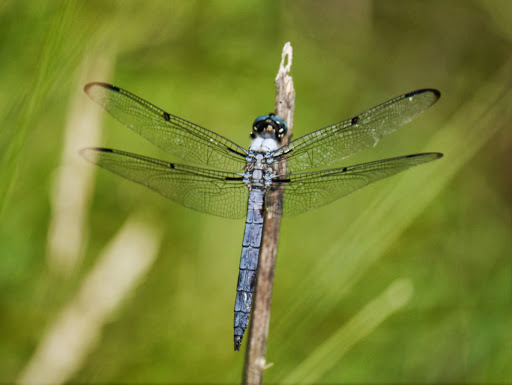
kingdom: Animalia
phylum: Arthropoda
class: Insecta
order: Odonata
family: Libellulidae
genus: Libellula
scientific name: Libellula vibrans
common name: Great blue skimmer
